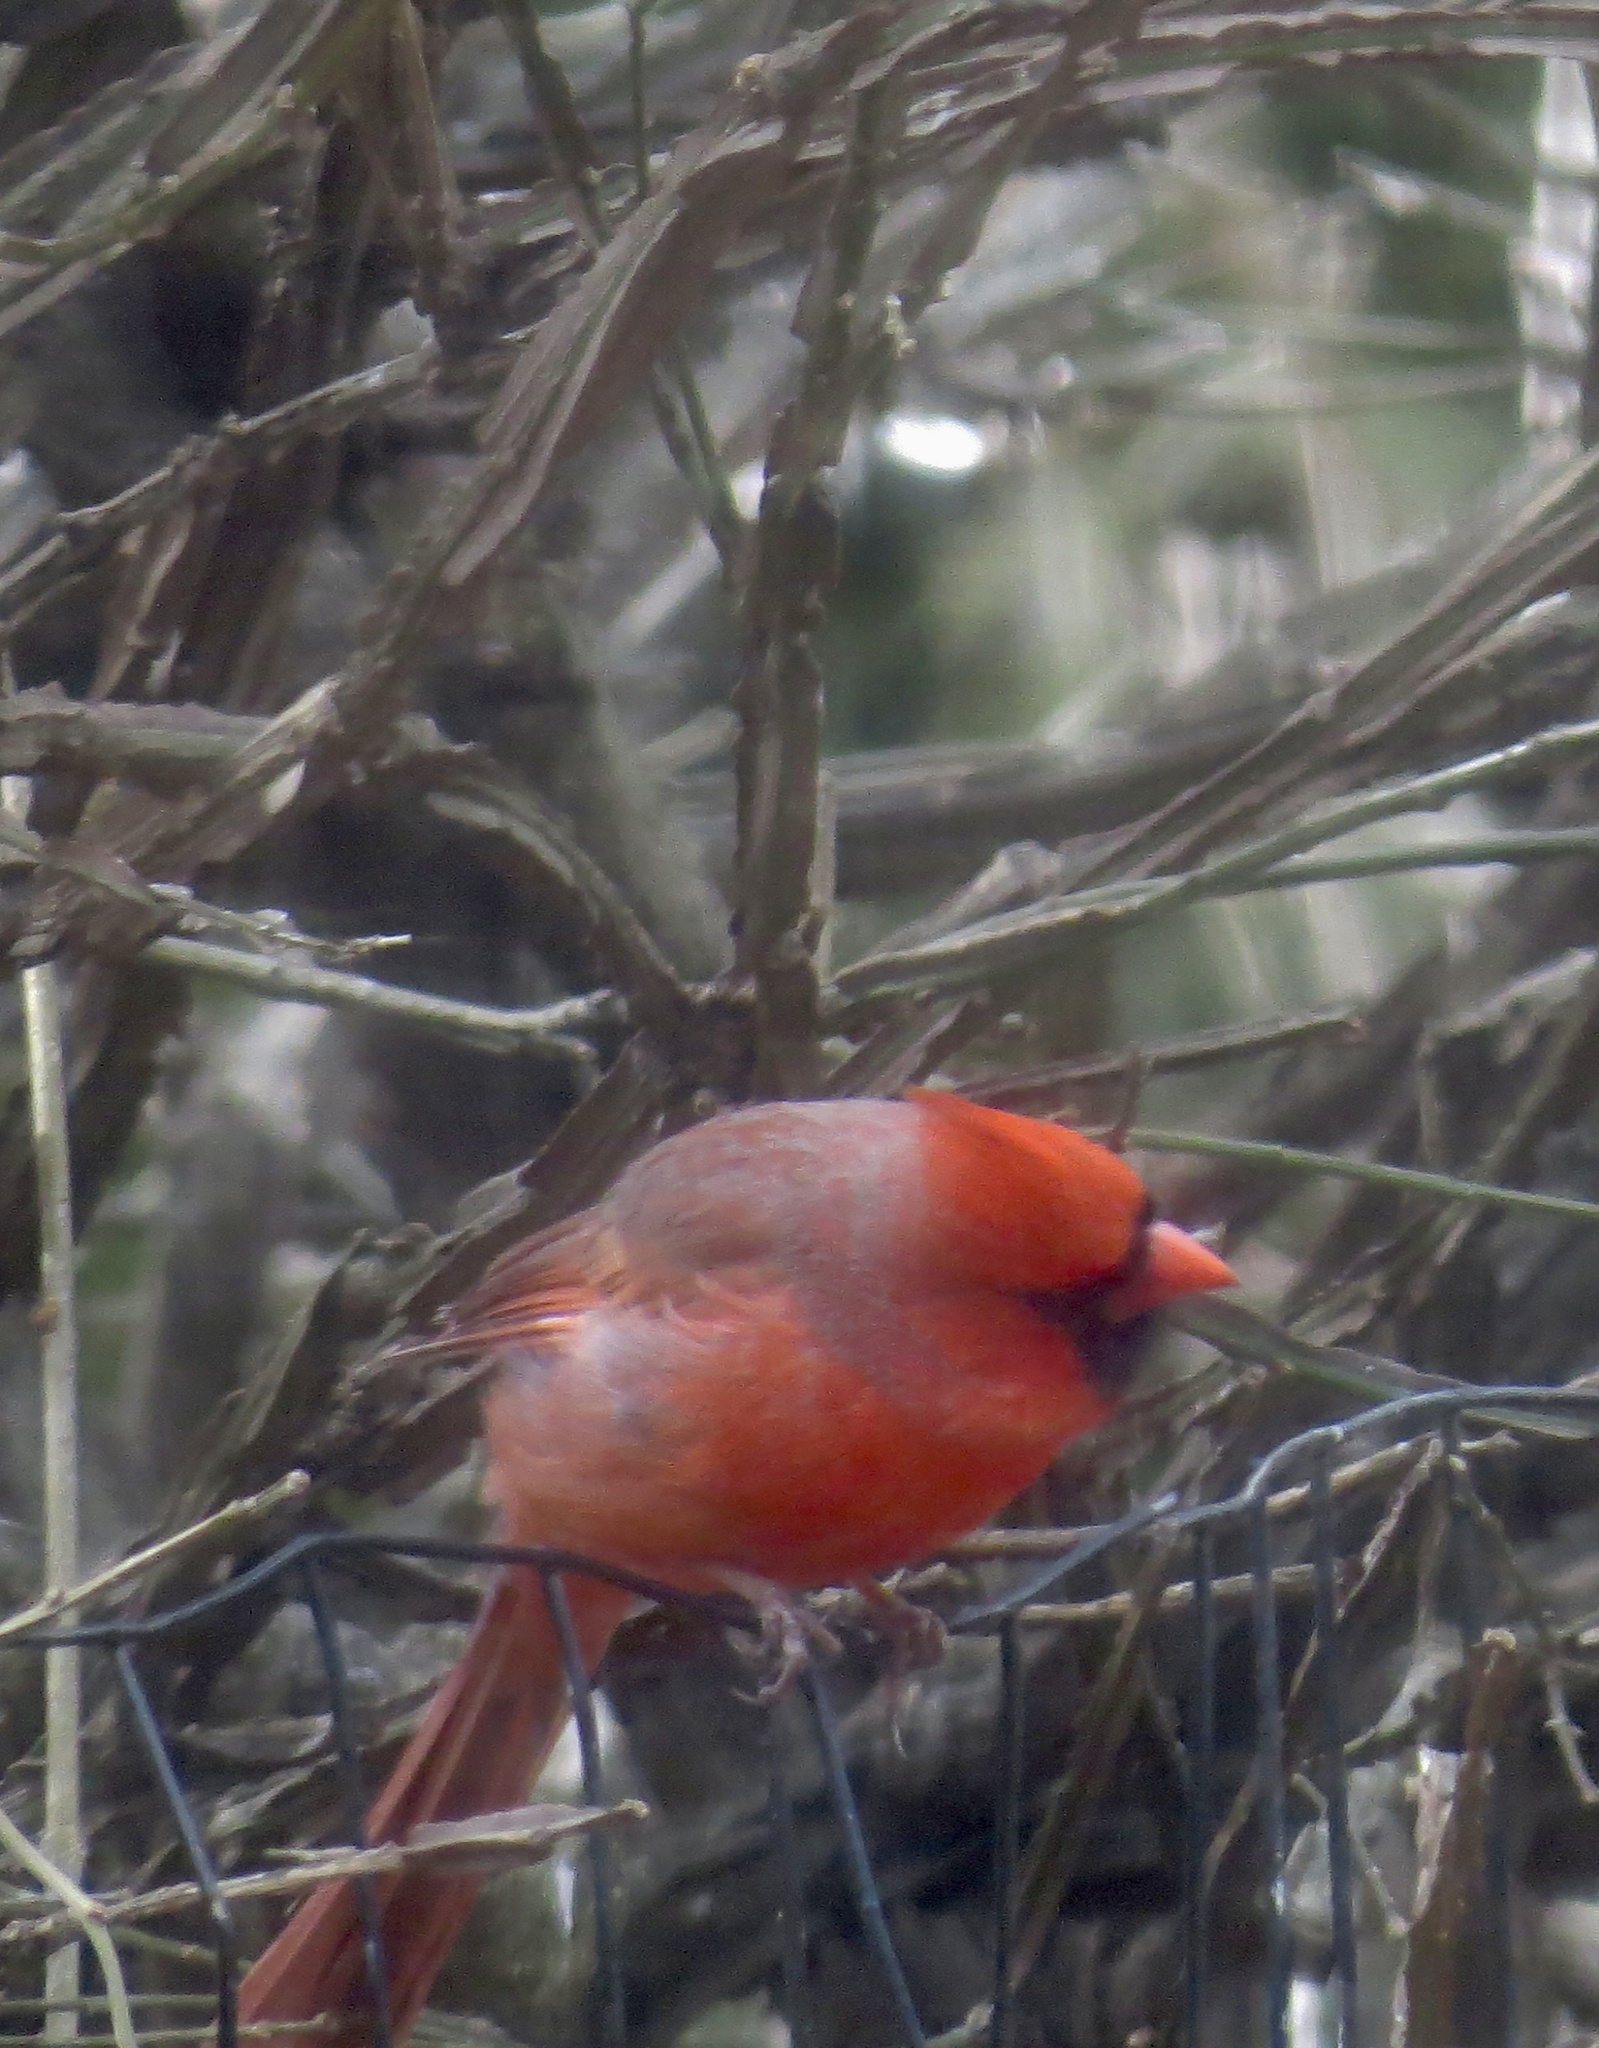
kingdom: Animalia
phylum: Chordata
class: Aves
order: Passeriformes
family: Cardinalidae
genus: Cardinalis
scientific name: Cardinalis cardinalis
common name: Northern cardinal
